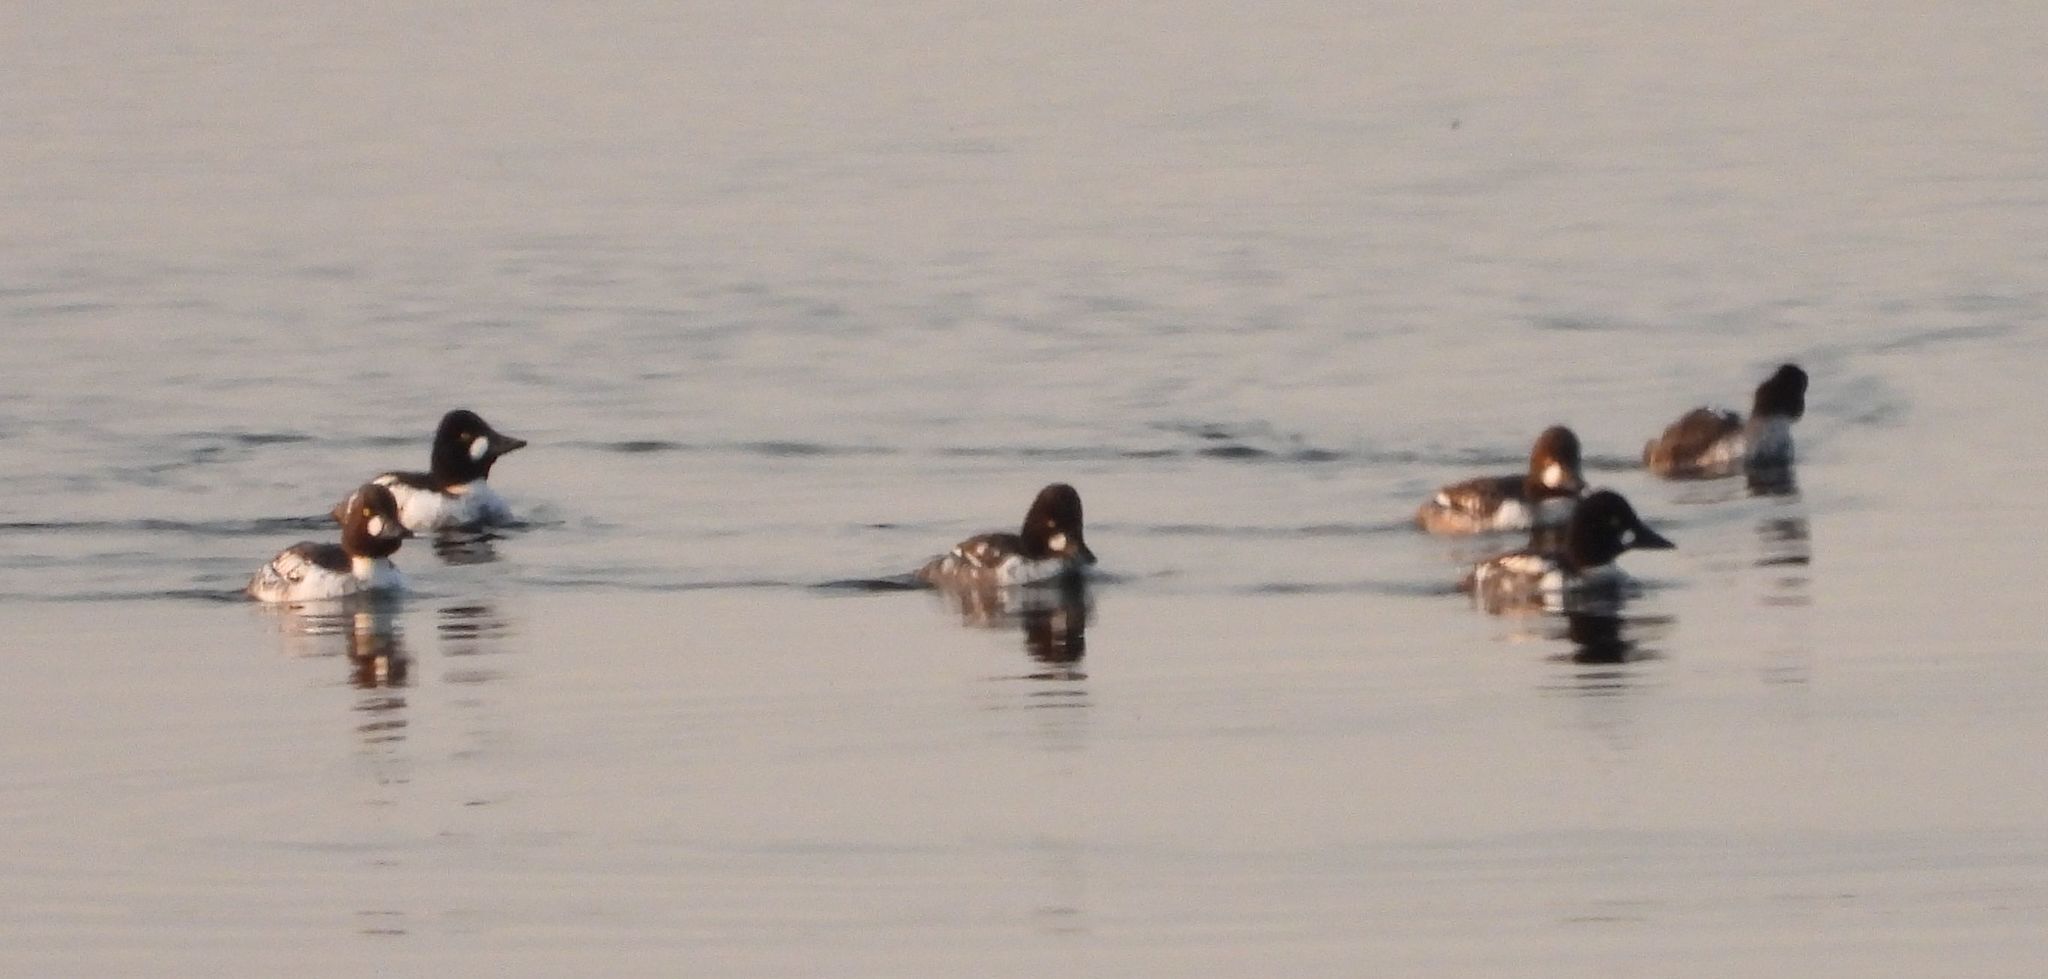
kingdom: Animalia
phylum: Chordata
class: Aves
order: Anseriformes
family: Anatidae
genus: Bucephala
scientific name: Bucephala clangula
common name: Common goldeneye
